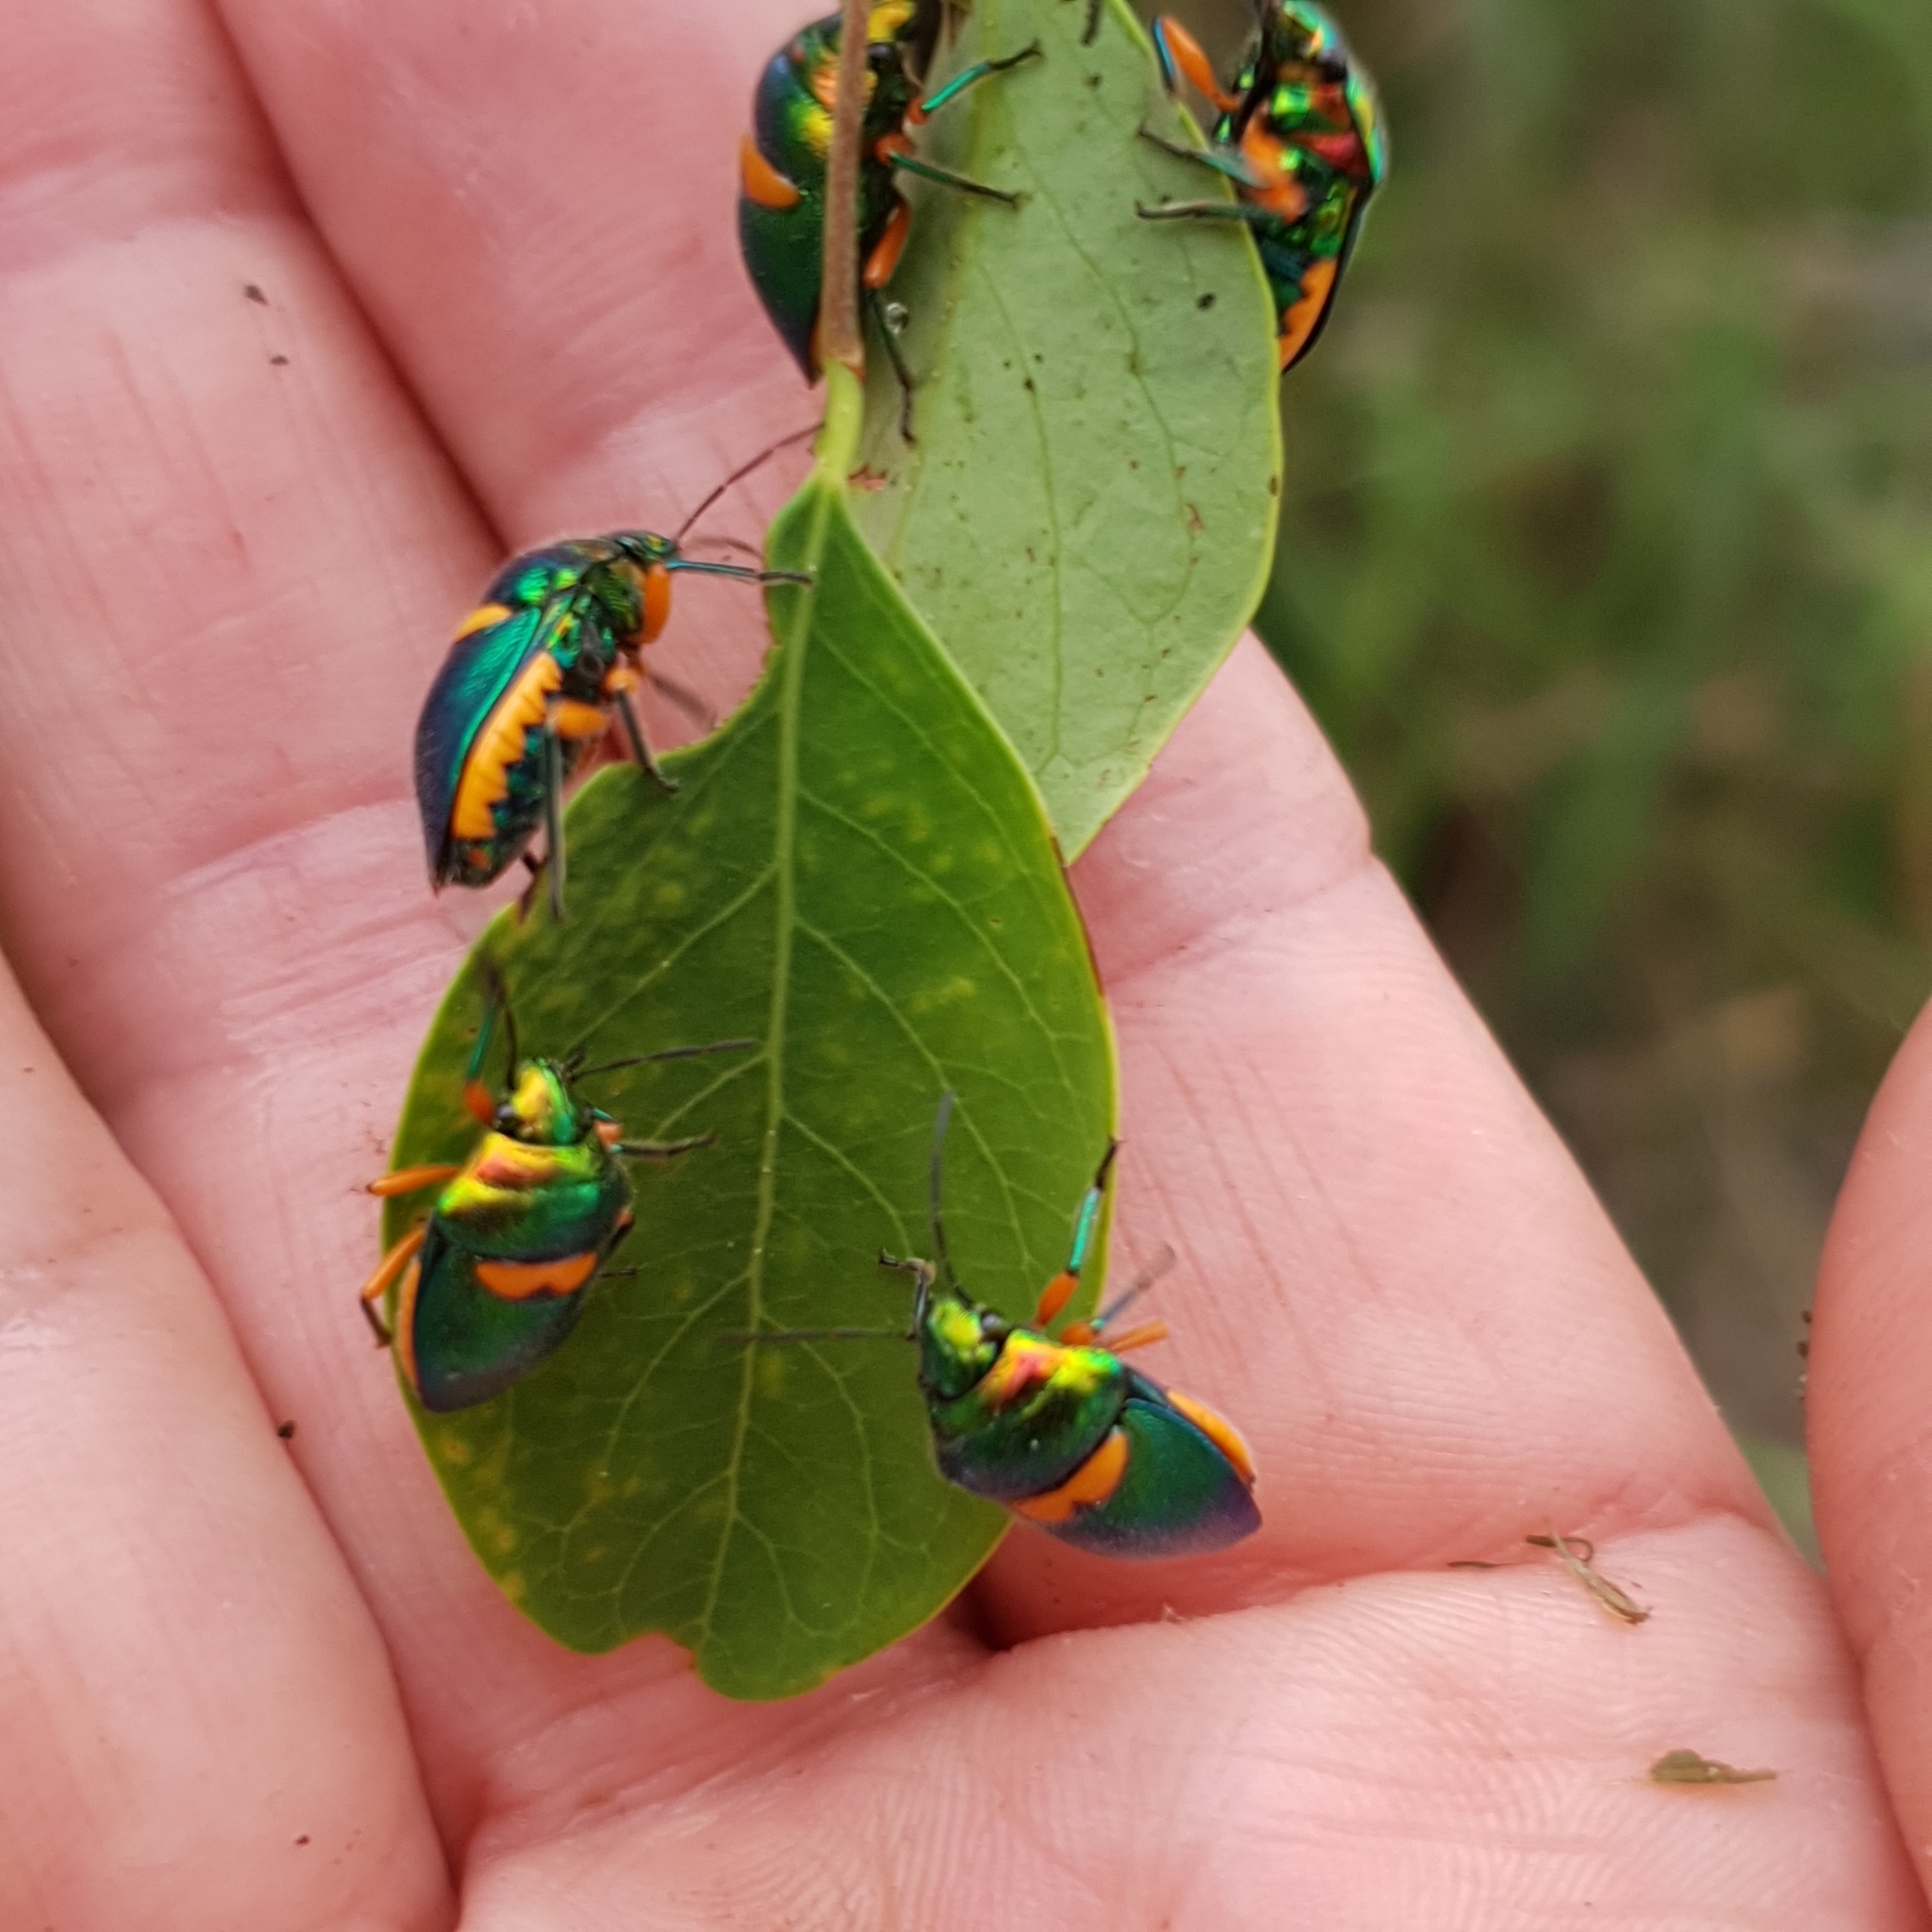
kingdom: Animalia
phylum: Arthropoda
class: Insecta
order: Hemiptera
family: Scutelleridae
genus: Lampromicra
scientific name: Lampromicra senator
